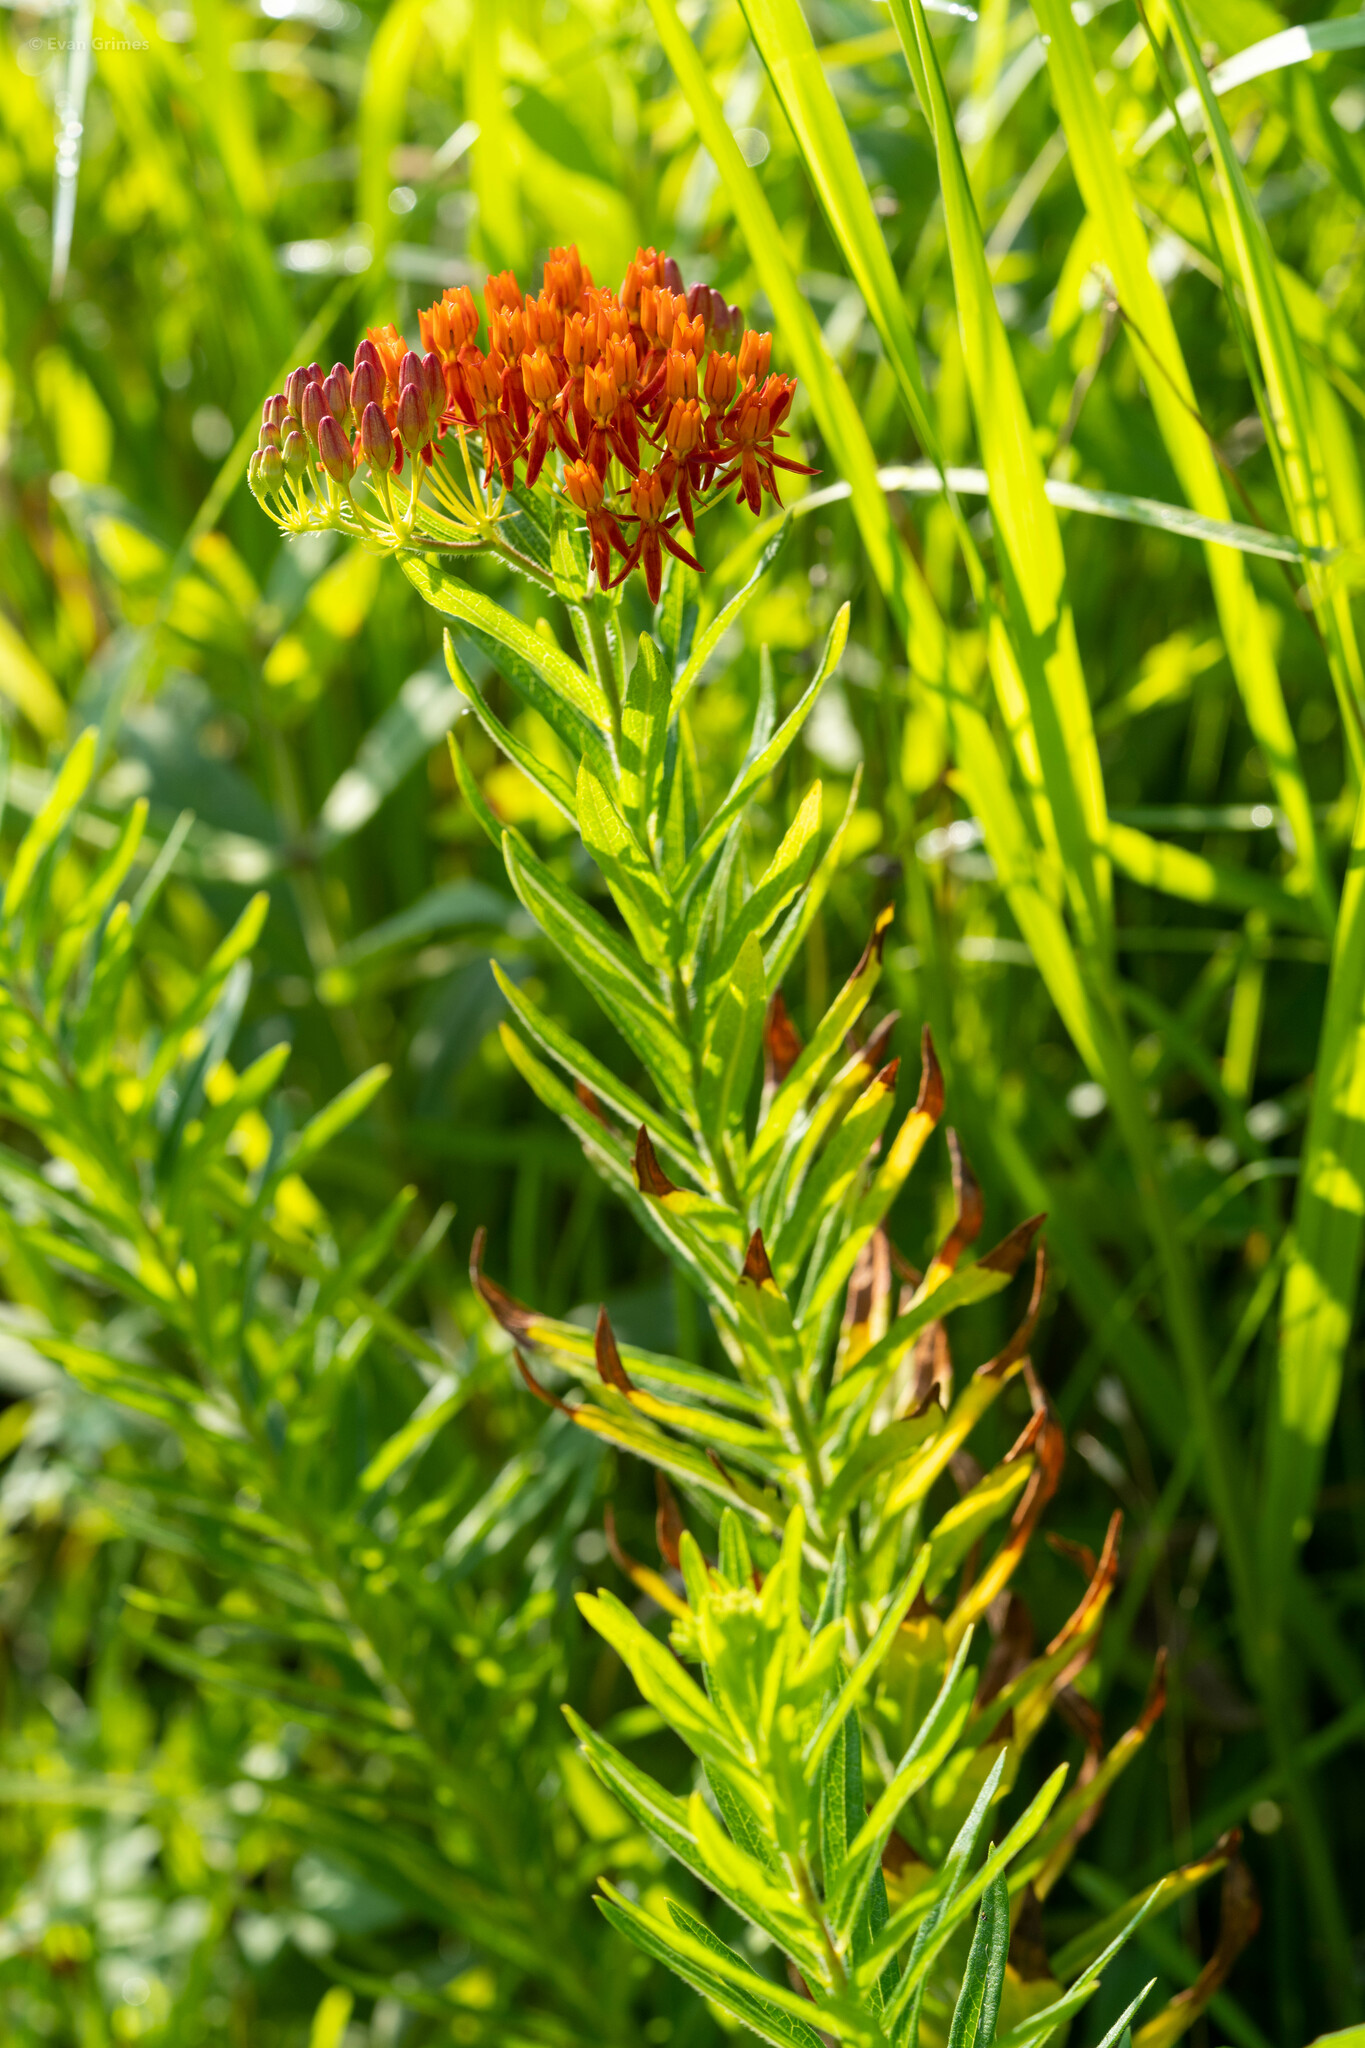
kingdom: Plantae
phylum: Tracheophyta
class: Magnoliopsida
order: Gentianales
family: Apocynaceae
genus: Asclepias
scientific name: Asclepias tuberosa
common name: Butterfly milkweed
